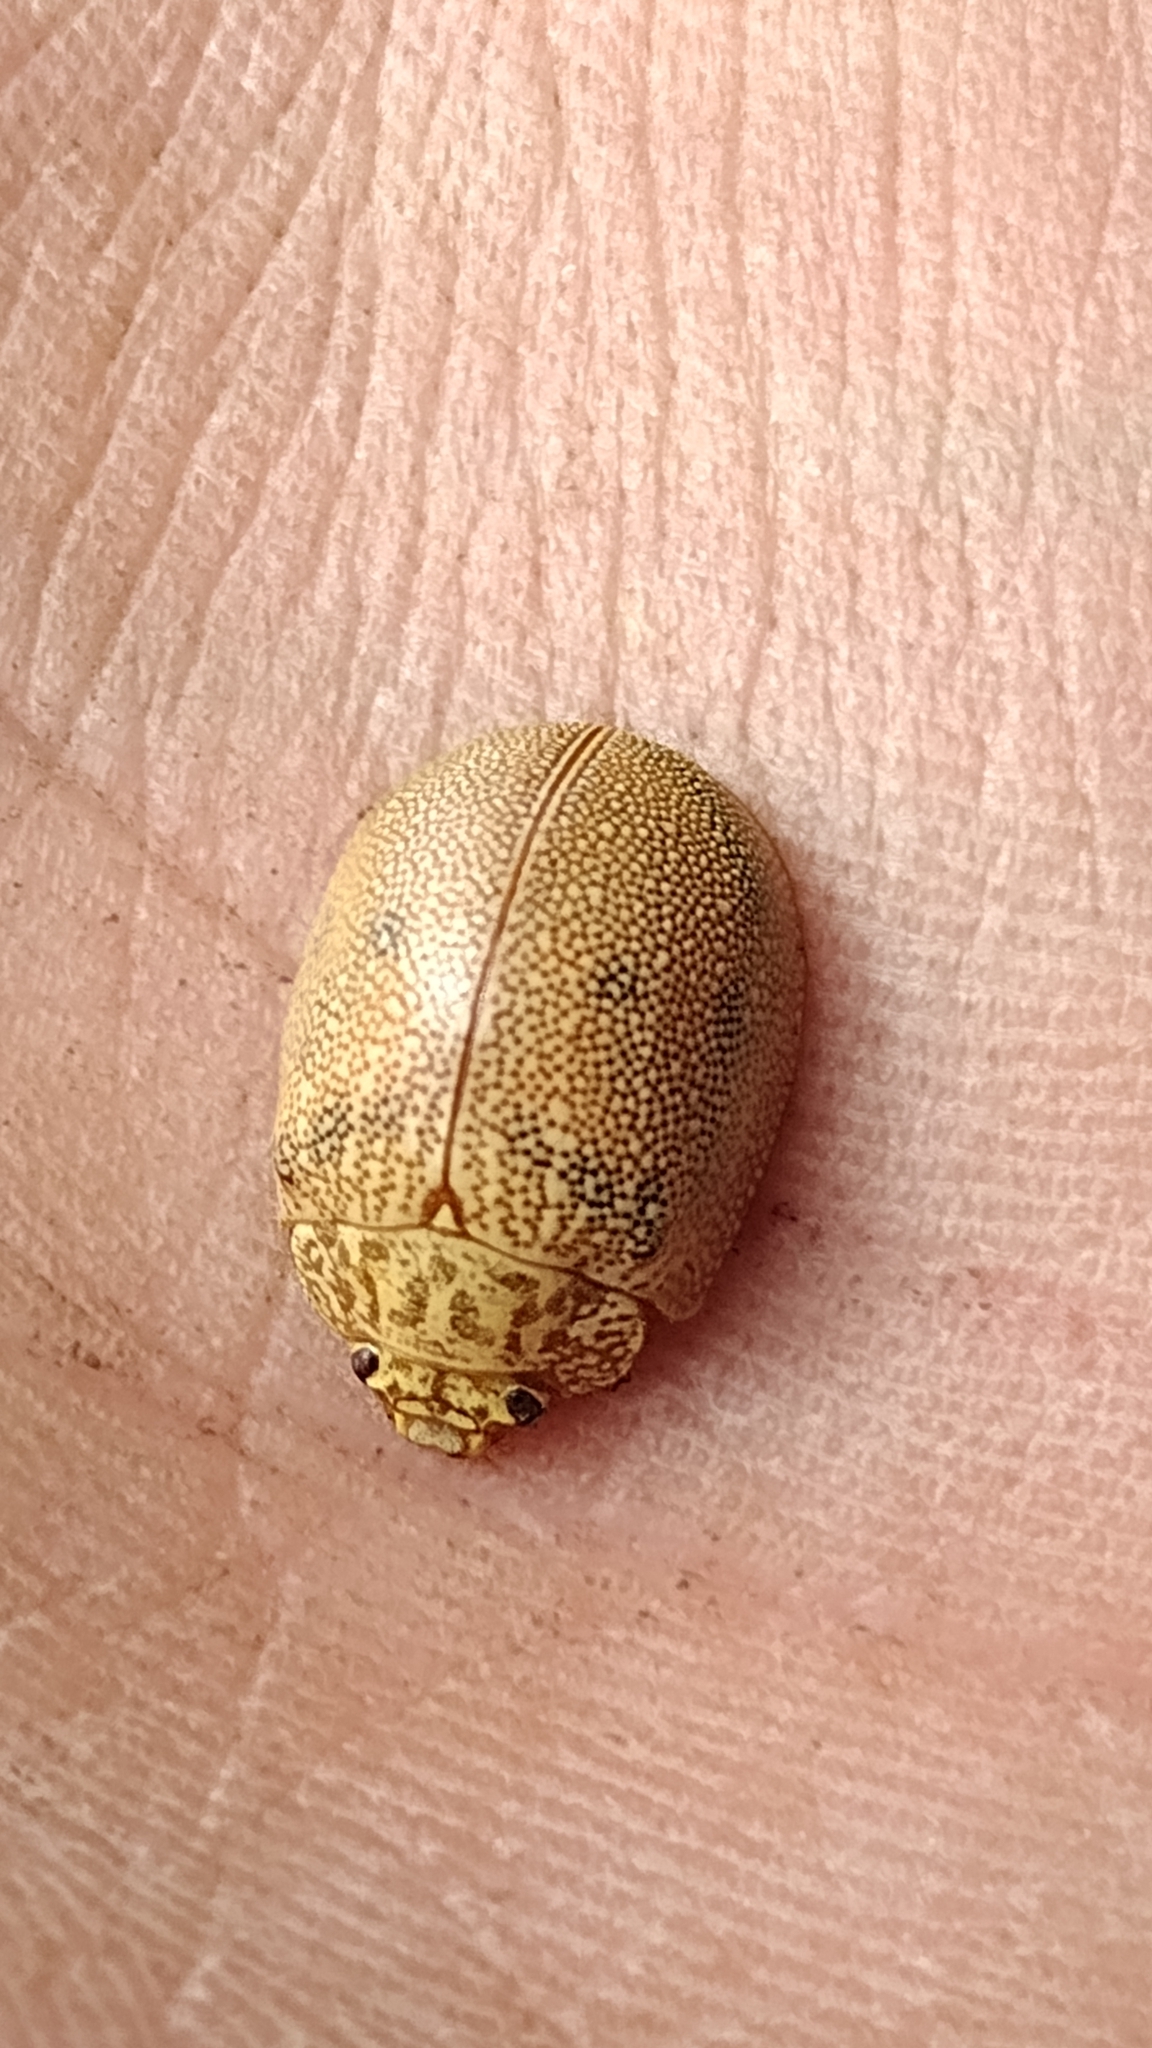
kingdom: Animalia
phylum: Arthropoda
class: Insecta
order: Coleoptera
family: Chrysomelidae
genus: Paropsis
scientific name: Paropsis
